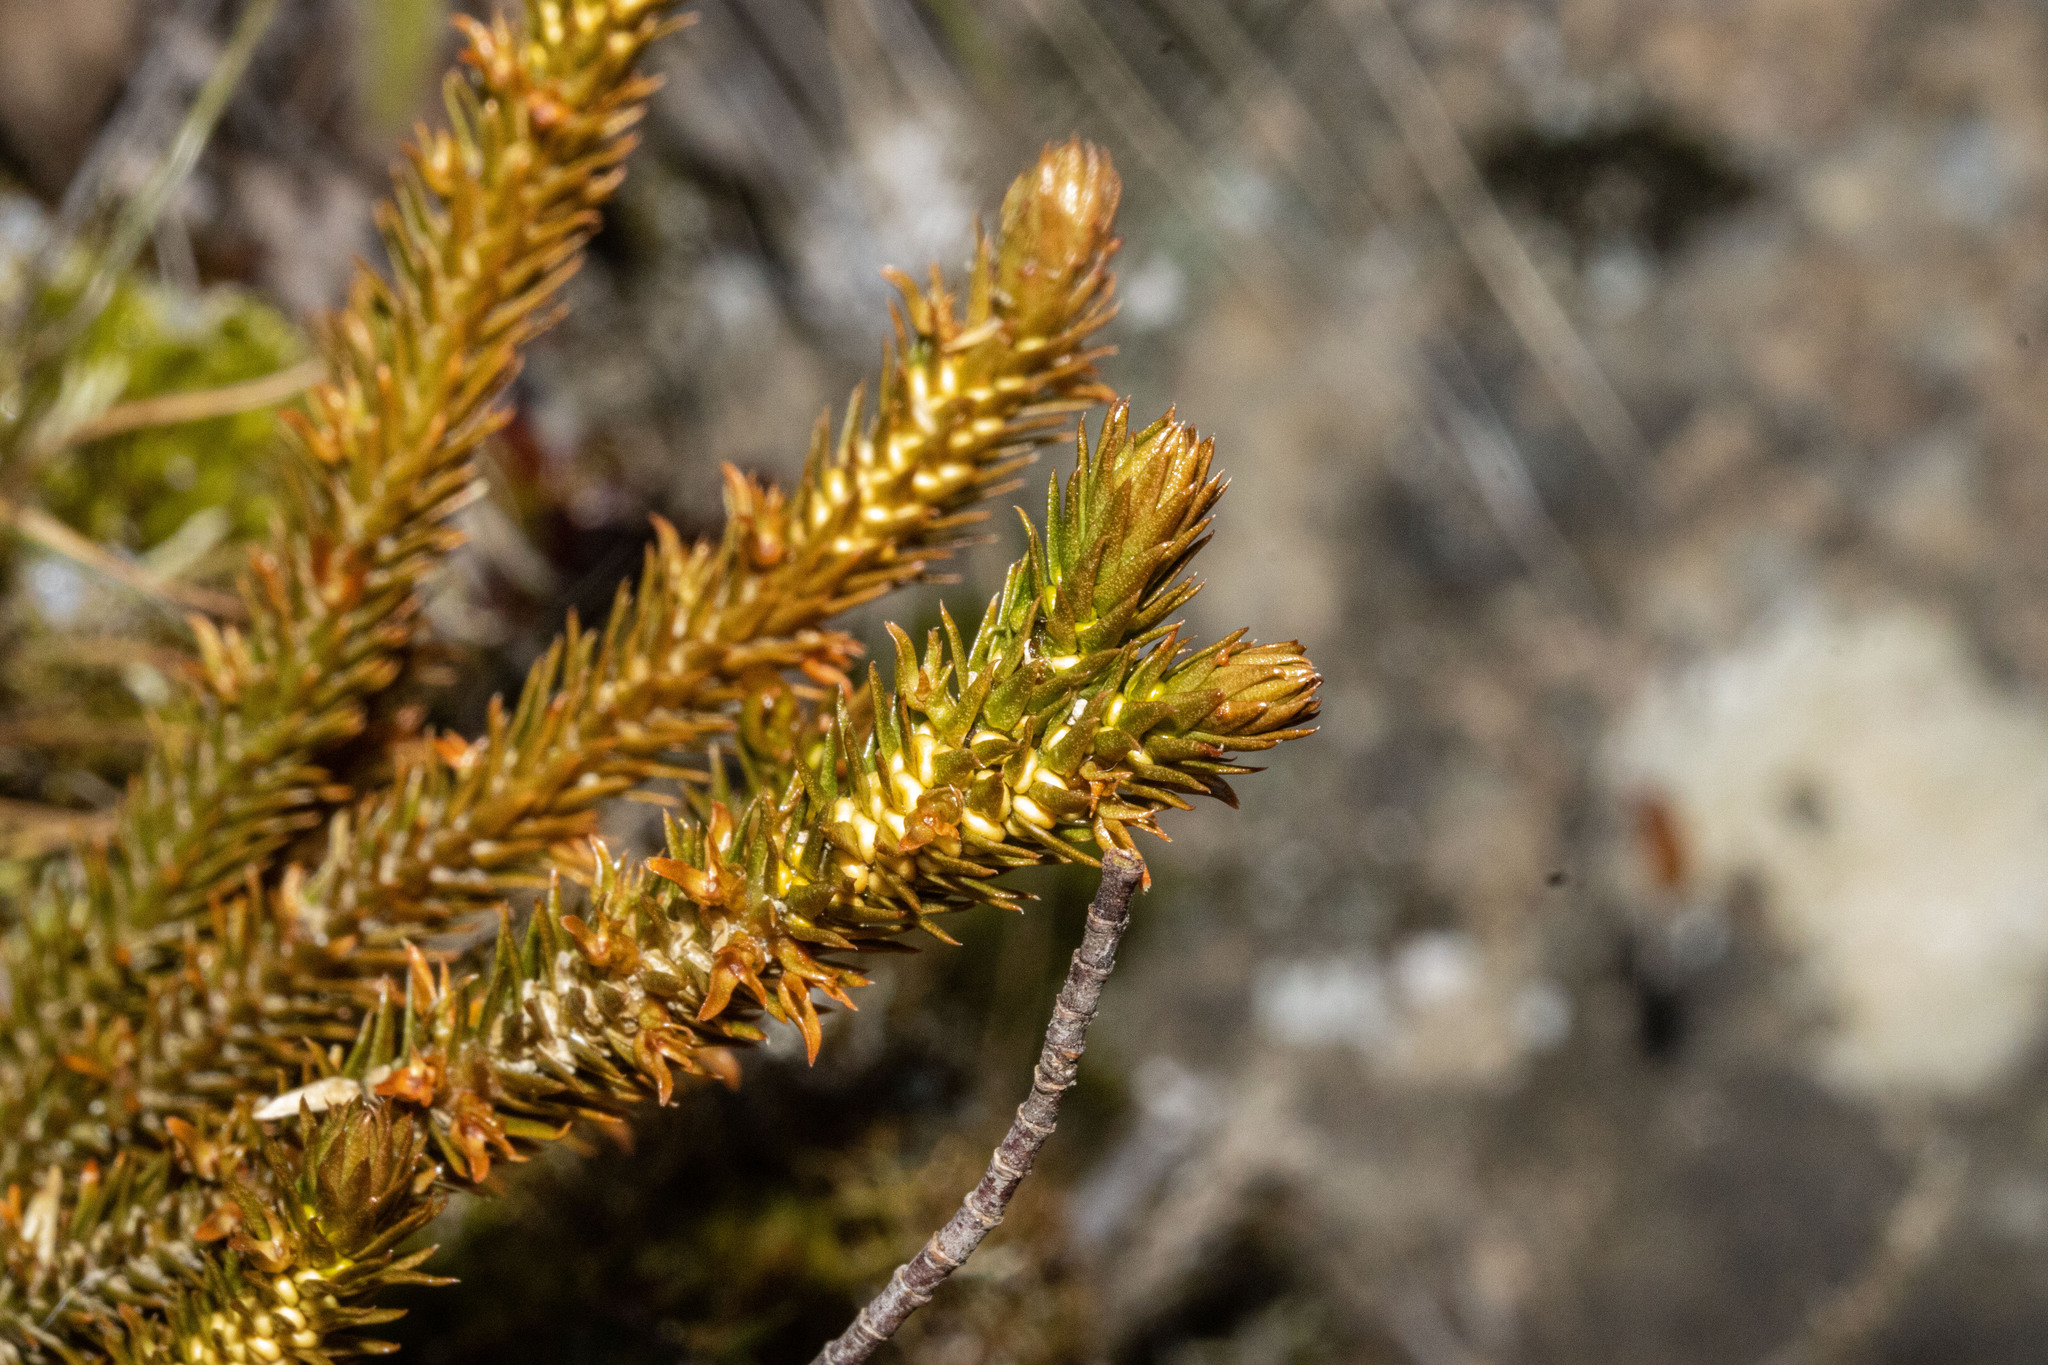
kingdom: Plantae
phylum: Tracheophyta
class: Lycopodiopsida
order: Lycopodiales
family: Lycopodiaceae
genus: Huperzia
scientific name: Huperzia australiana
